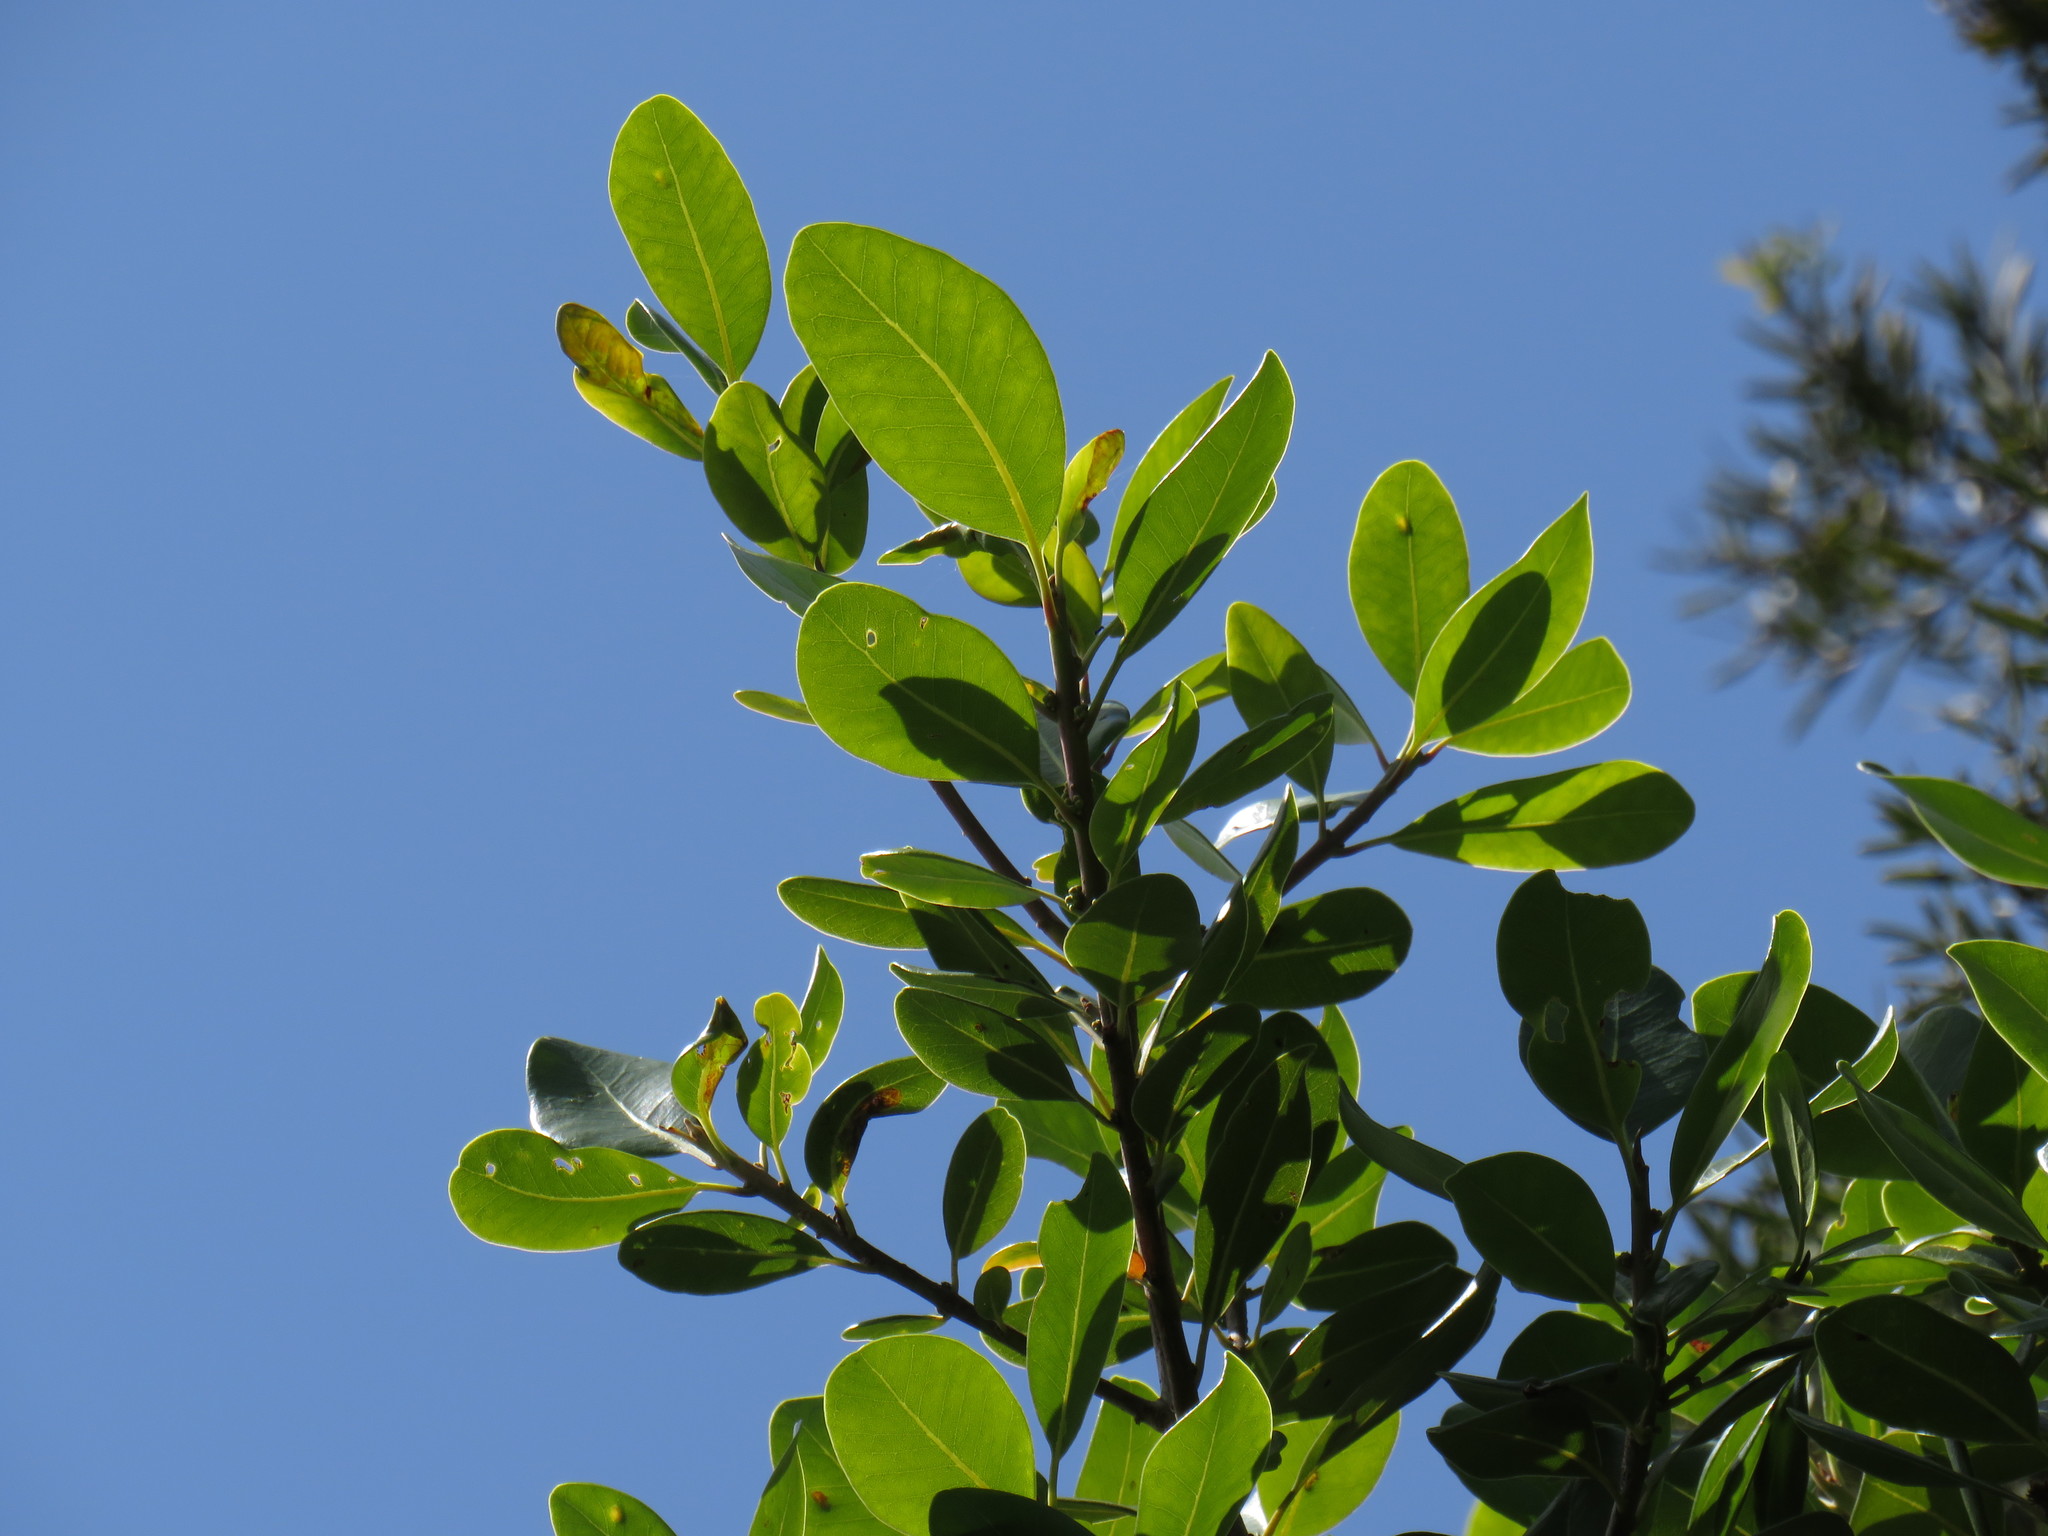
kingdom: Plantae
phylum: Tracheophyta
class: Magnoliopsida
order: Ericales
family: Sapotaceae
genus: Sideroxylon
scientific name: Sideroxylon inerme
